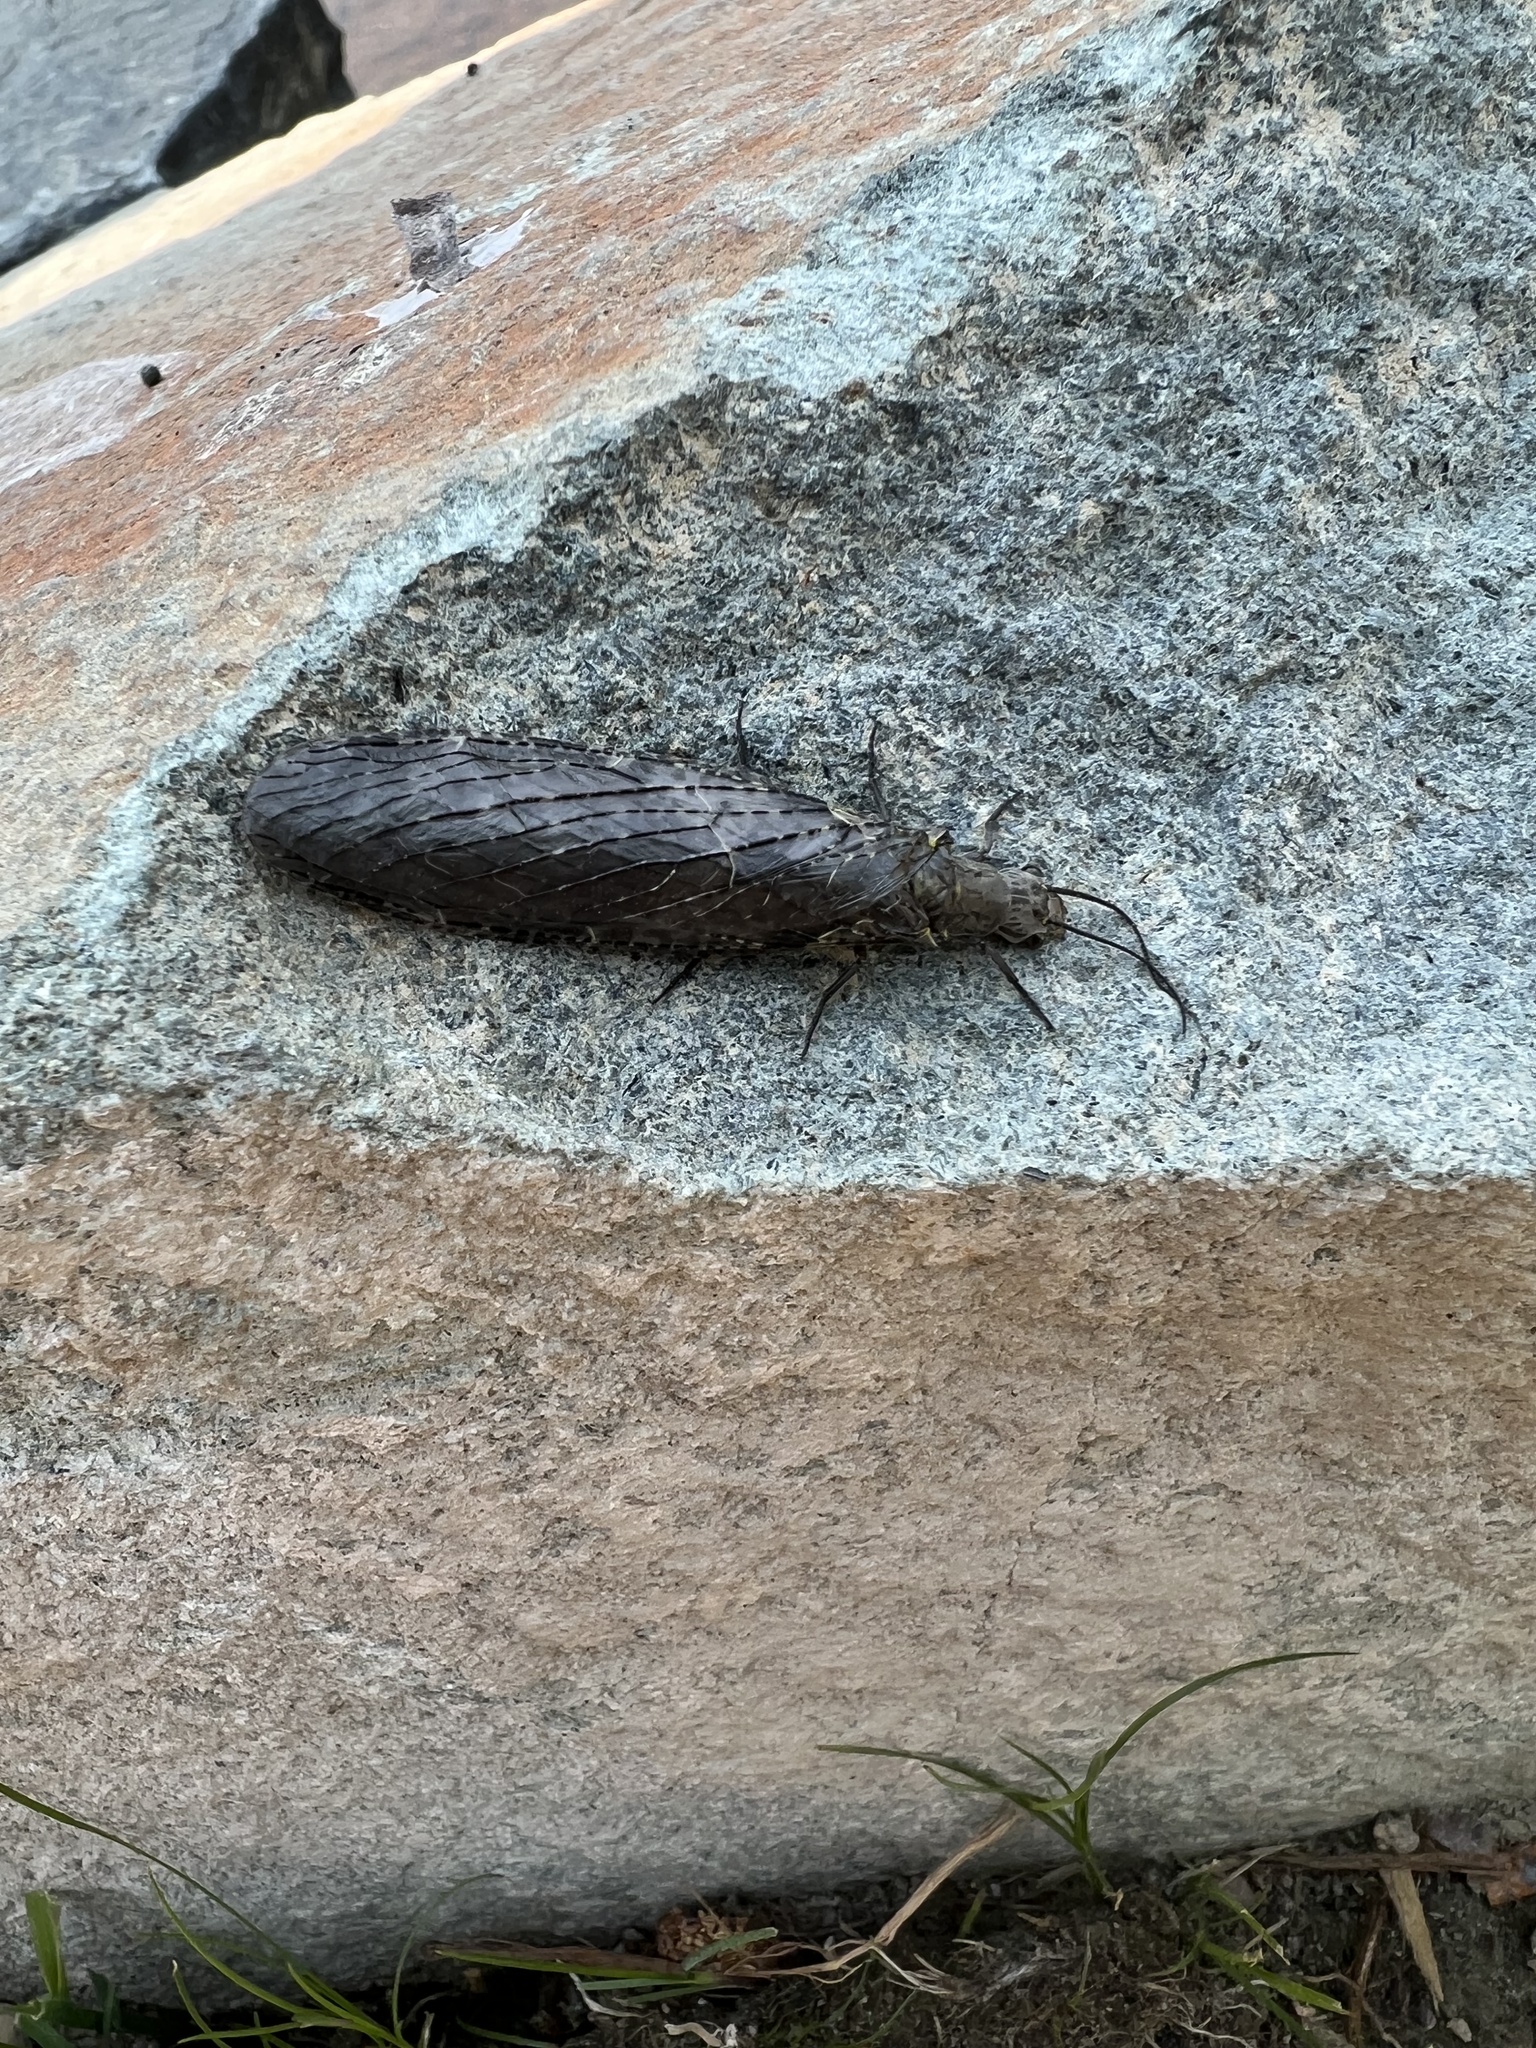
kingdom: Animalia
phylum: Arthropoda
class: Insecta
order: Megaloptera
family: Corydalidae
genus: Chauliodes
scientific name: Chauliodes rastricornis
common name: Spring fishfly
